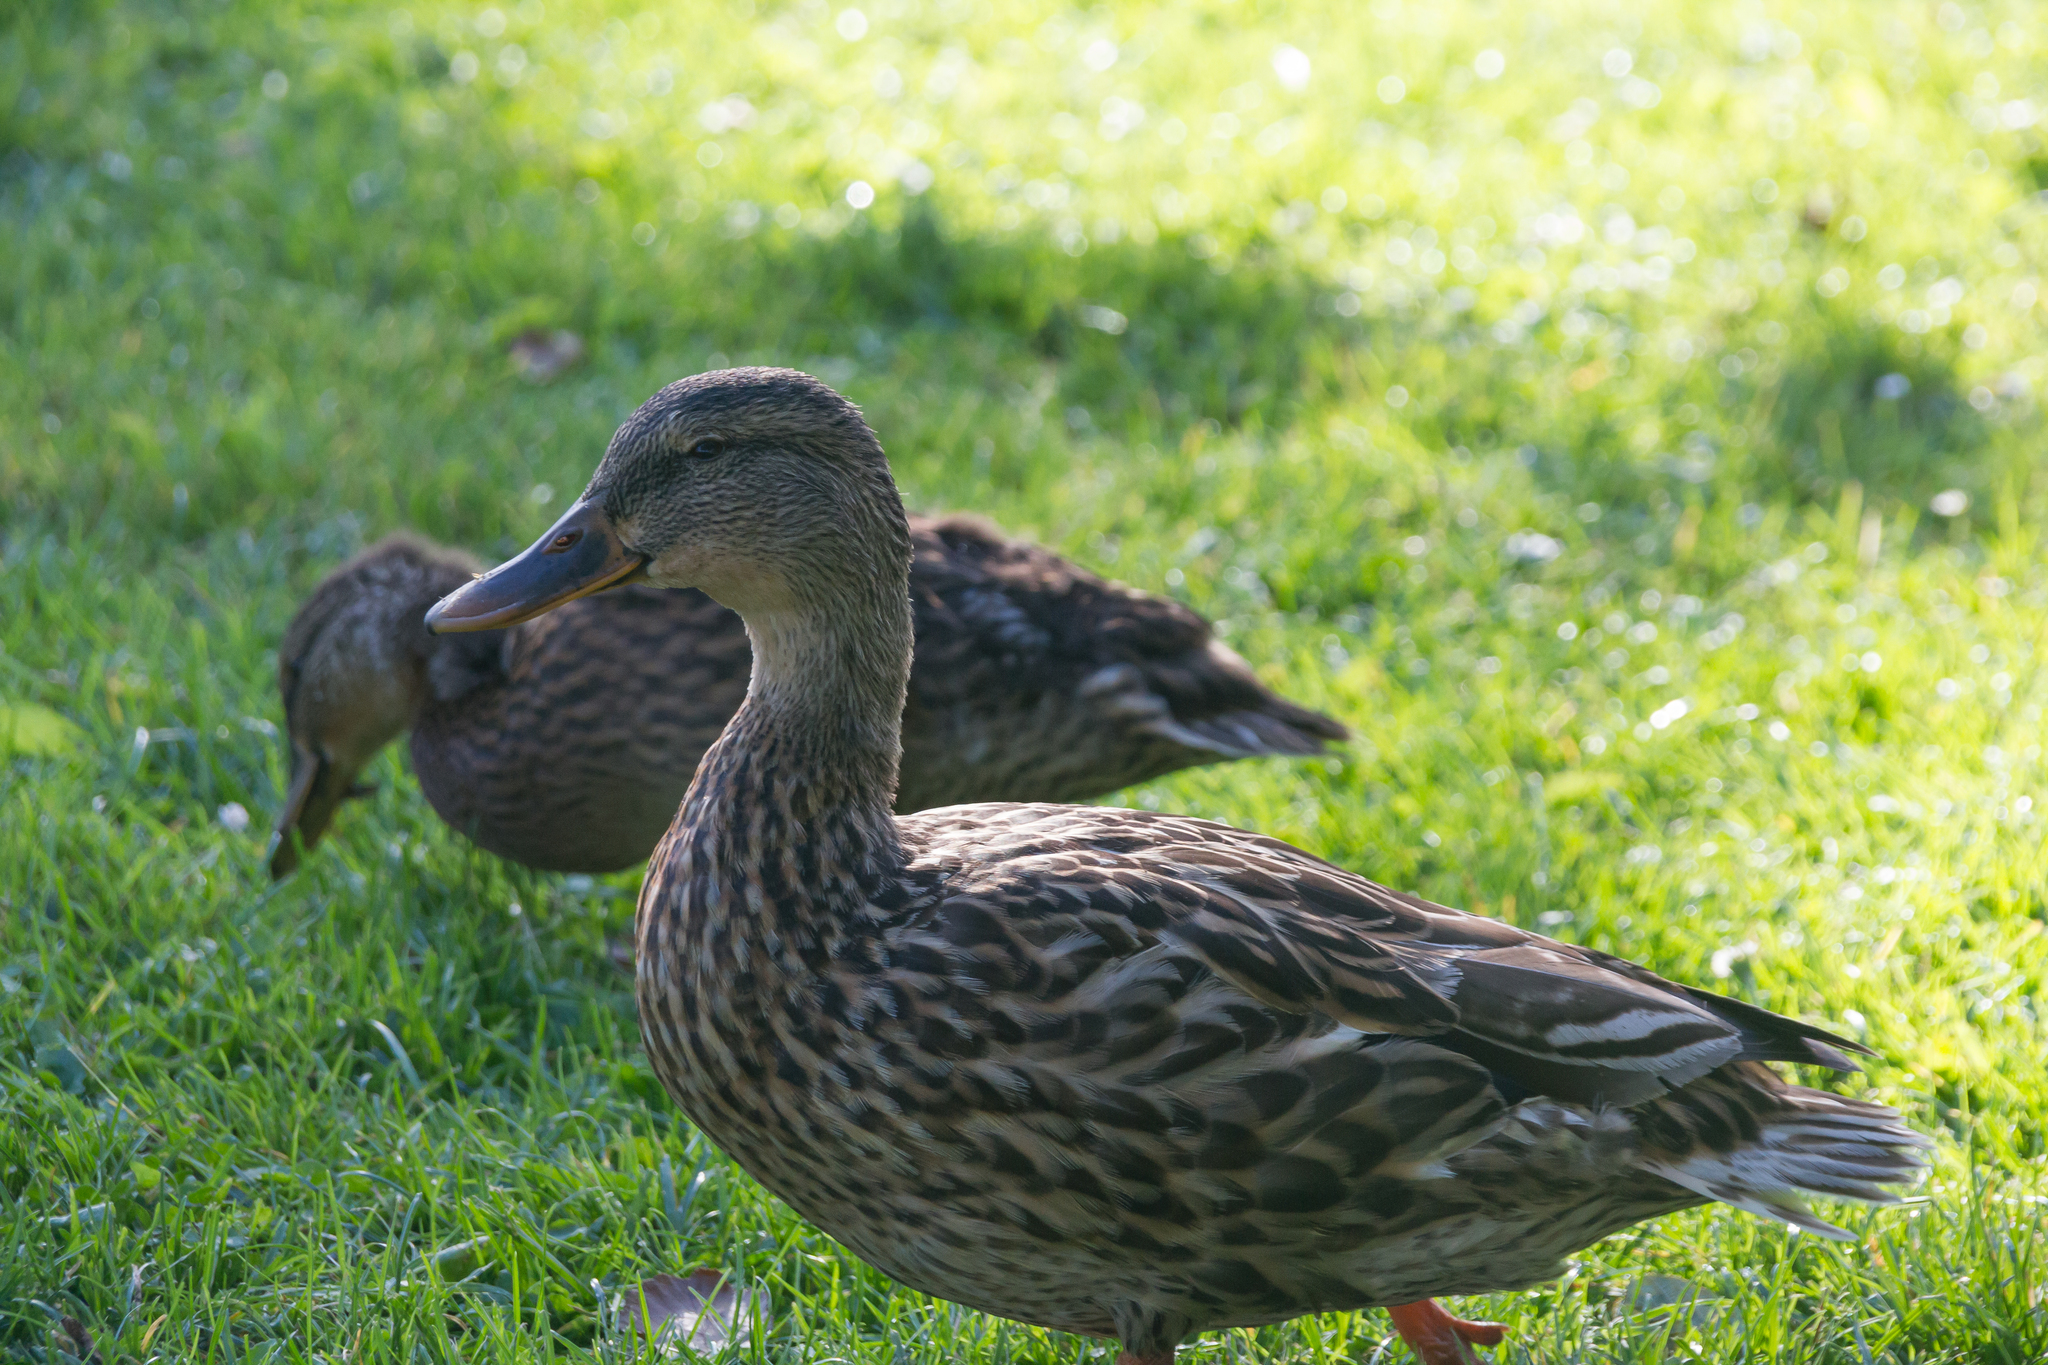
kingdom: Animalia
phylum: Chordata
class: Aves
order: Anseriformes
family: Anatidae
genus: Anas
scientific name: Anas platyrhynchos
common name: Mallard
